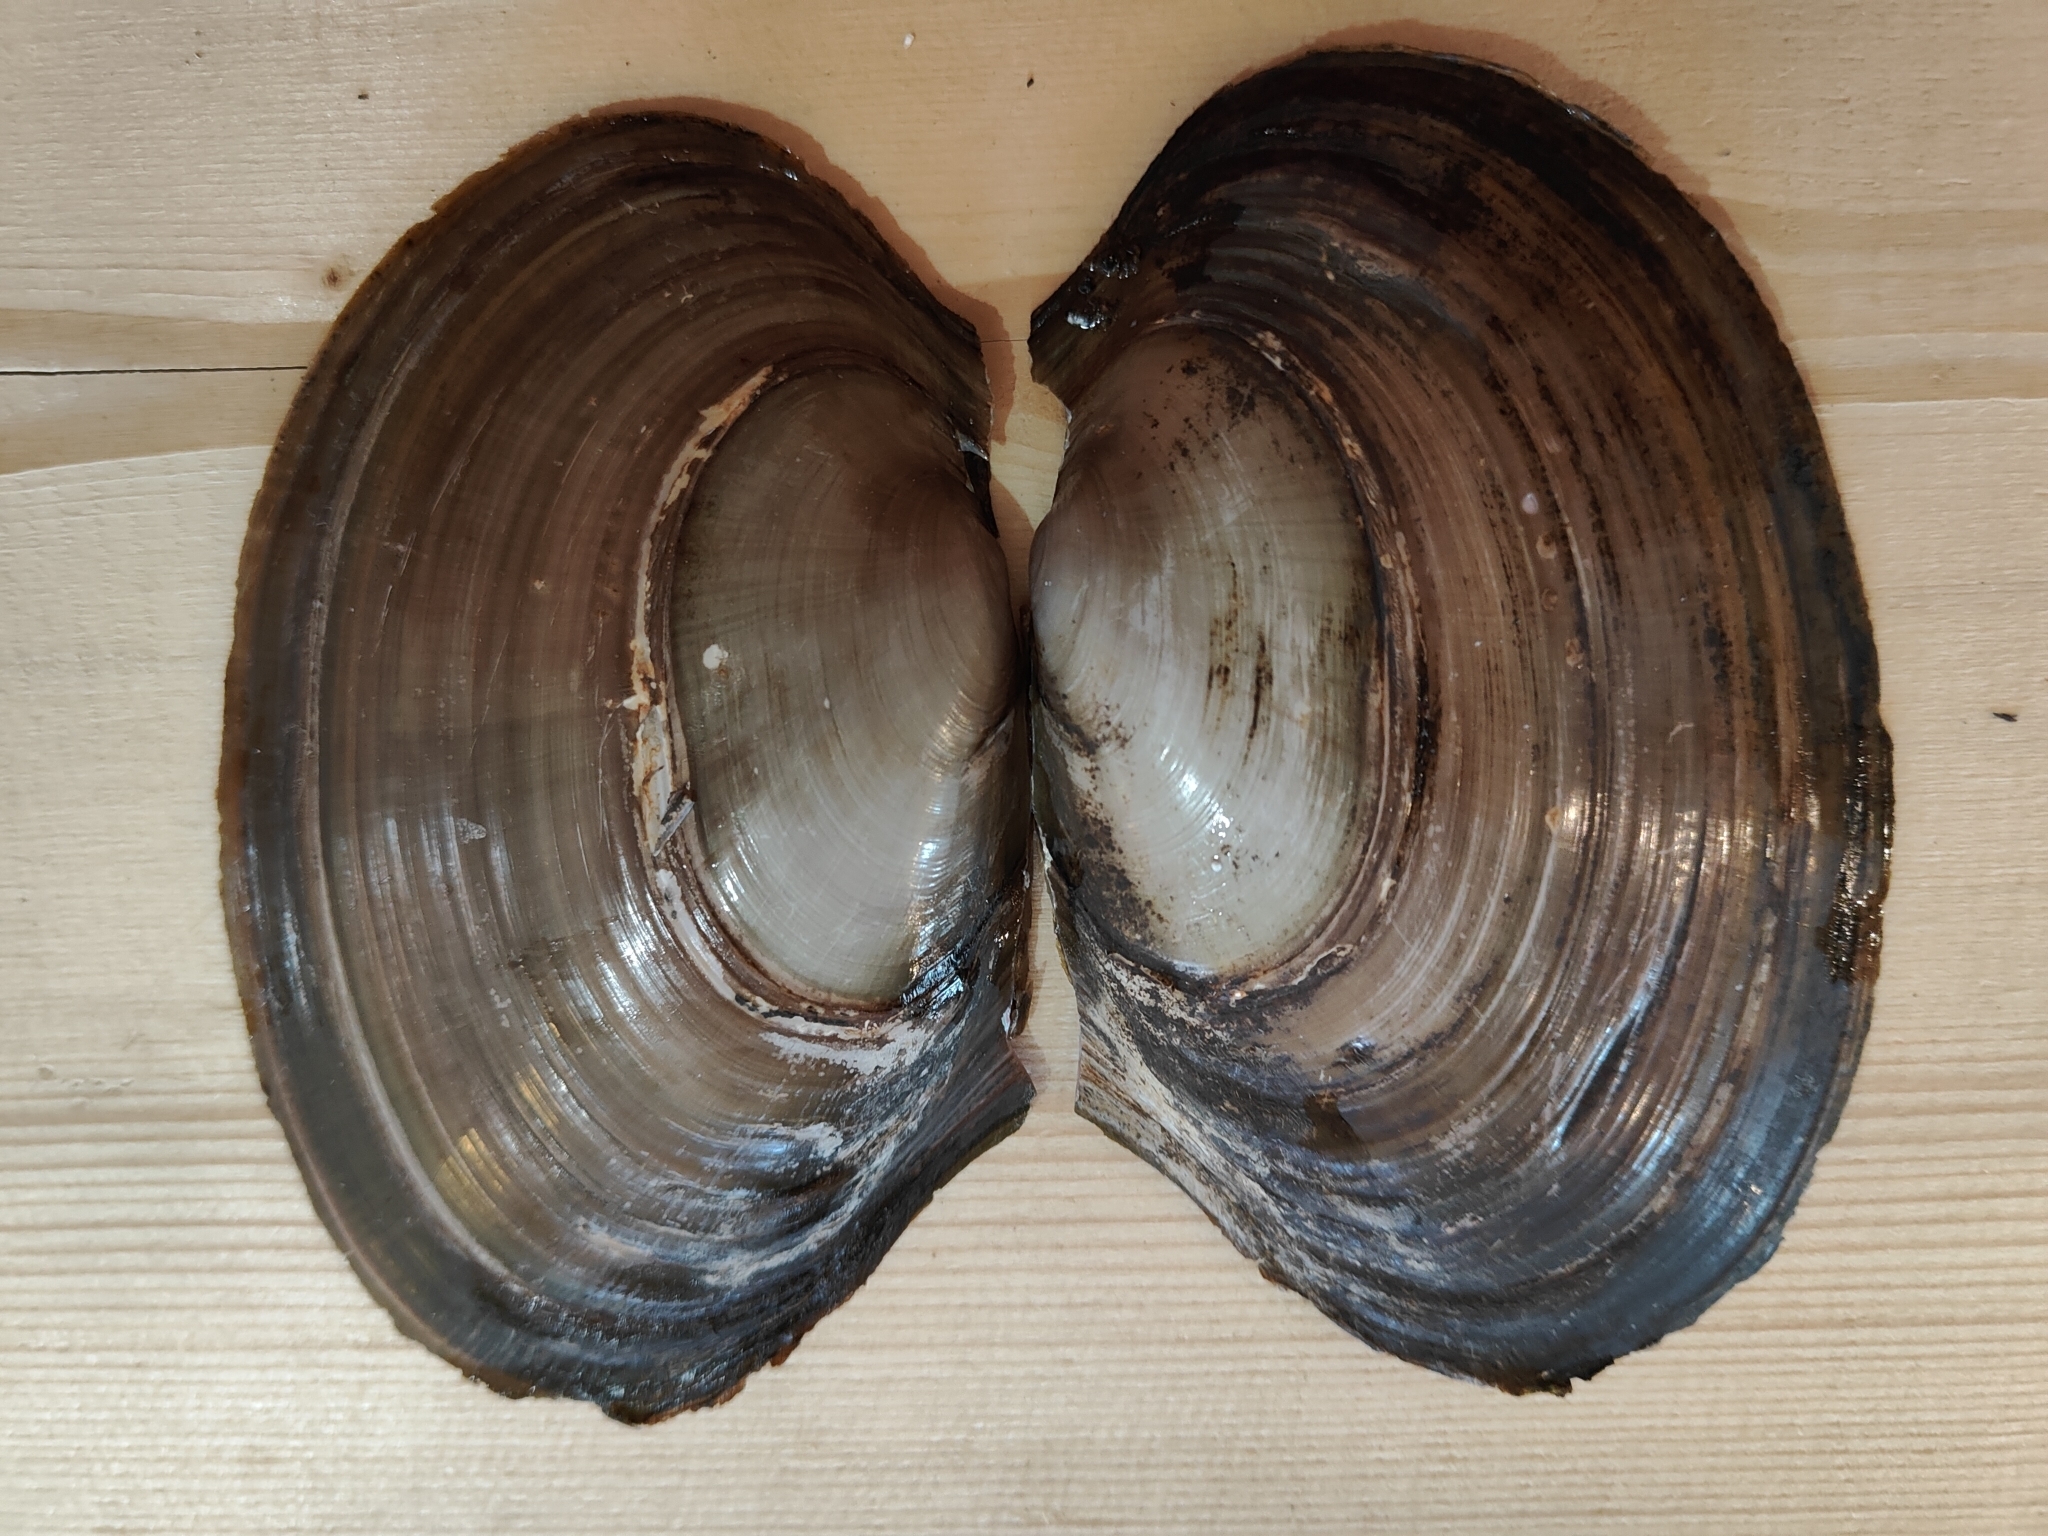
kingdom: Animalia
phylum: Mollusca
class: Bivalvia
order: Unionida
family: Unionidae
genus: Potamilus
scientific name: Potamilus ohiensis
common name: Pink papershell
